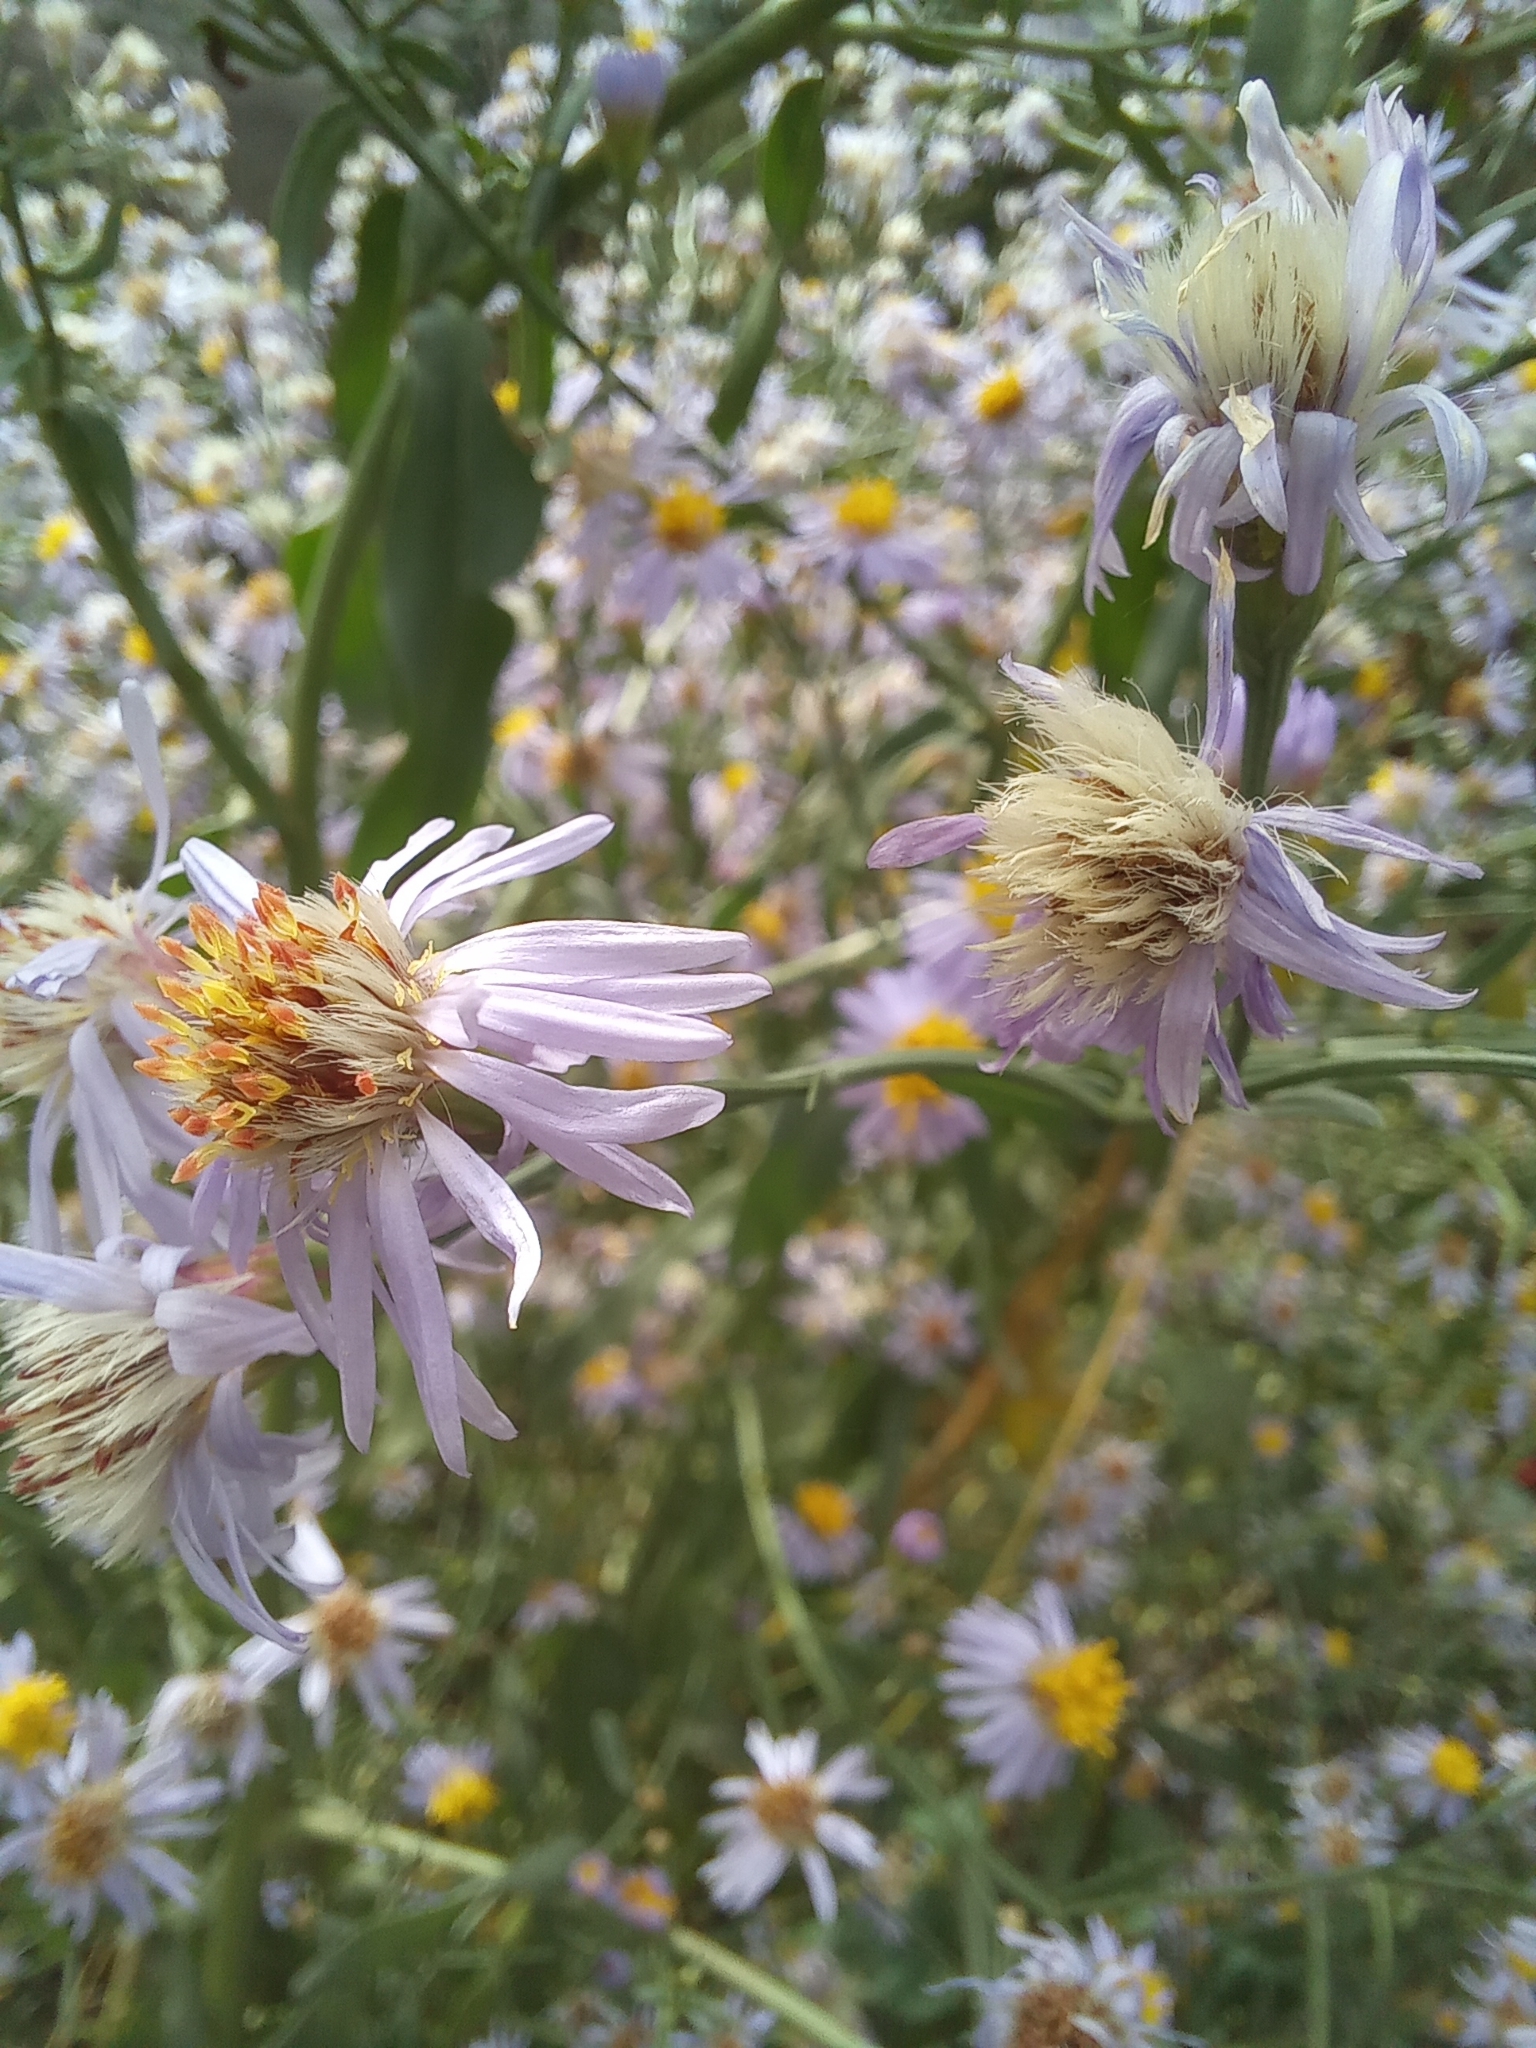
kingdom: Plantae
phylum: Tracheophyta
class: Magnoliopsida
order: Asterales
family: Asteraceae
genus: Tripolium
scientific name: Tripolium pannonicum
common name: Sea aster
